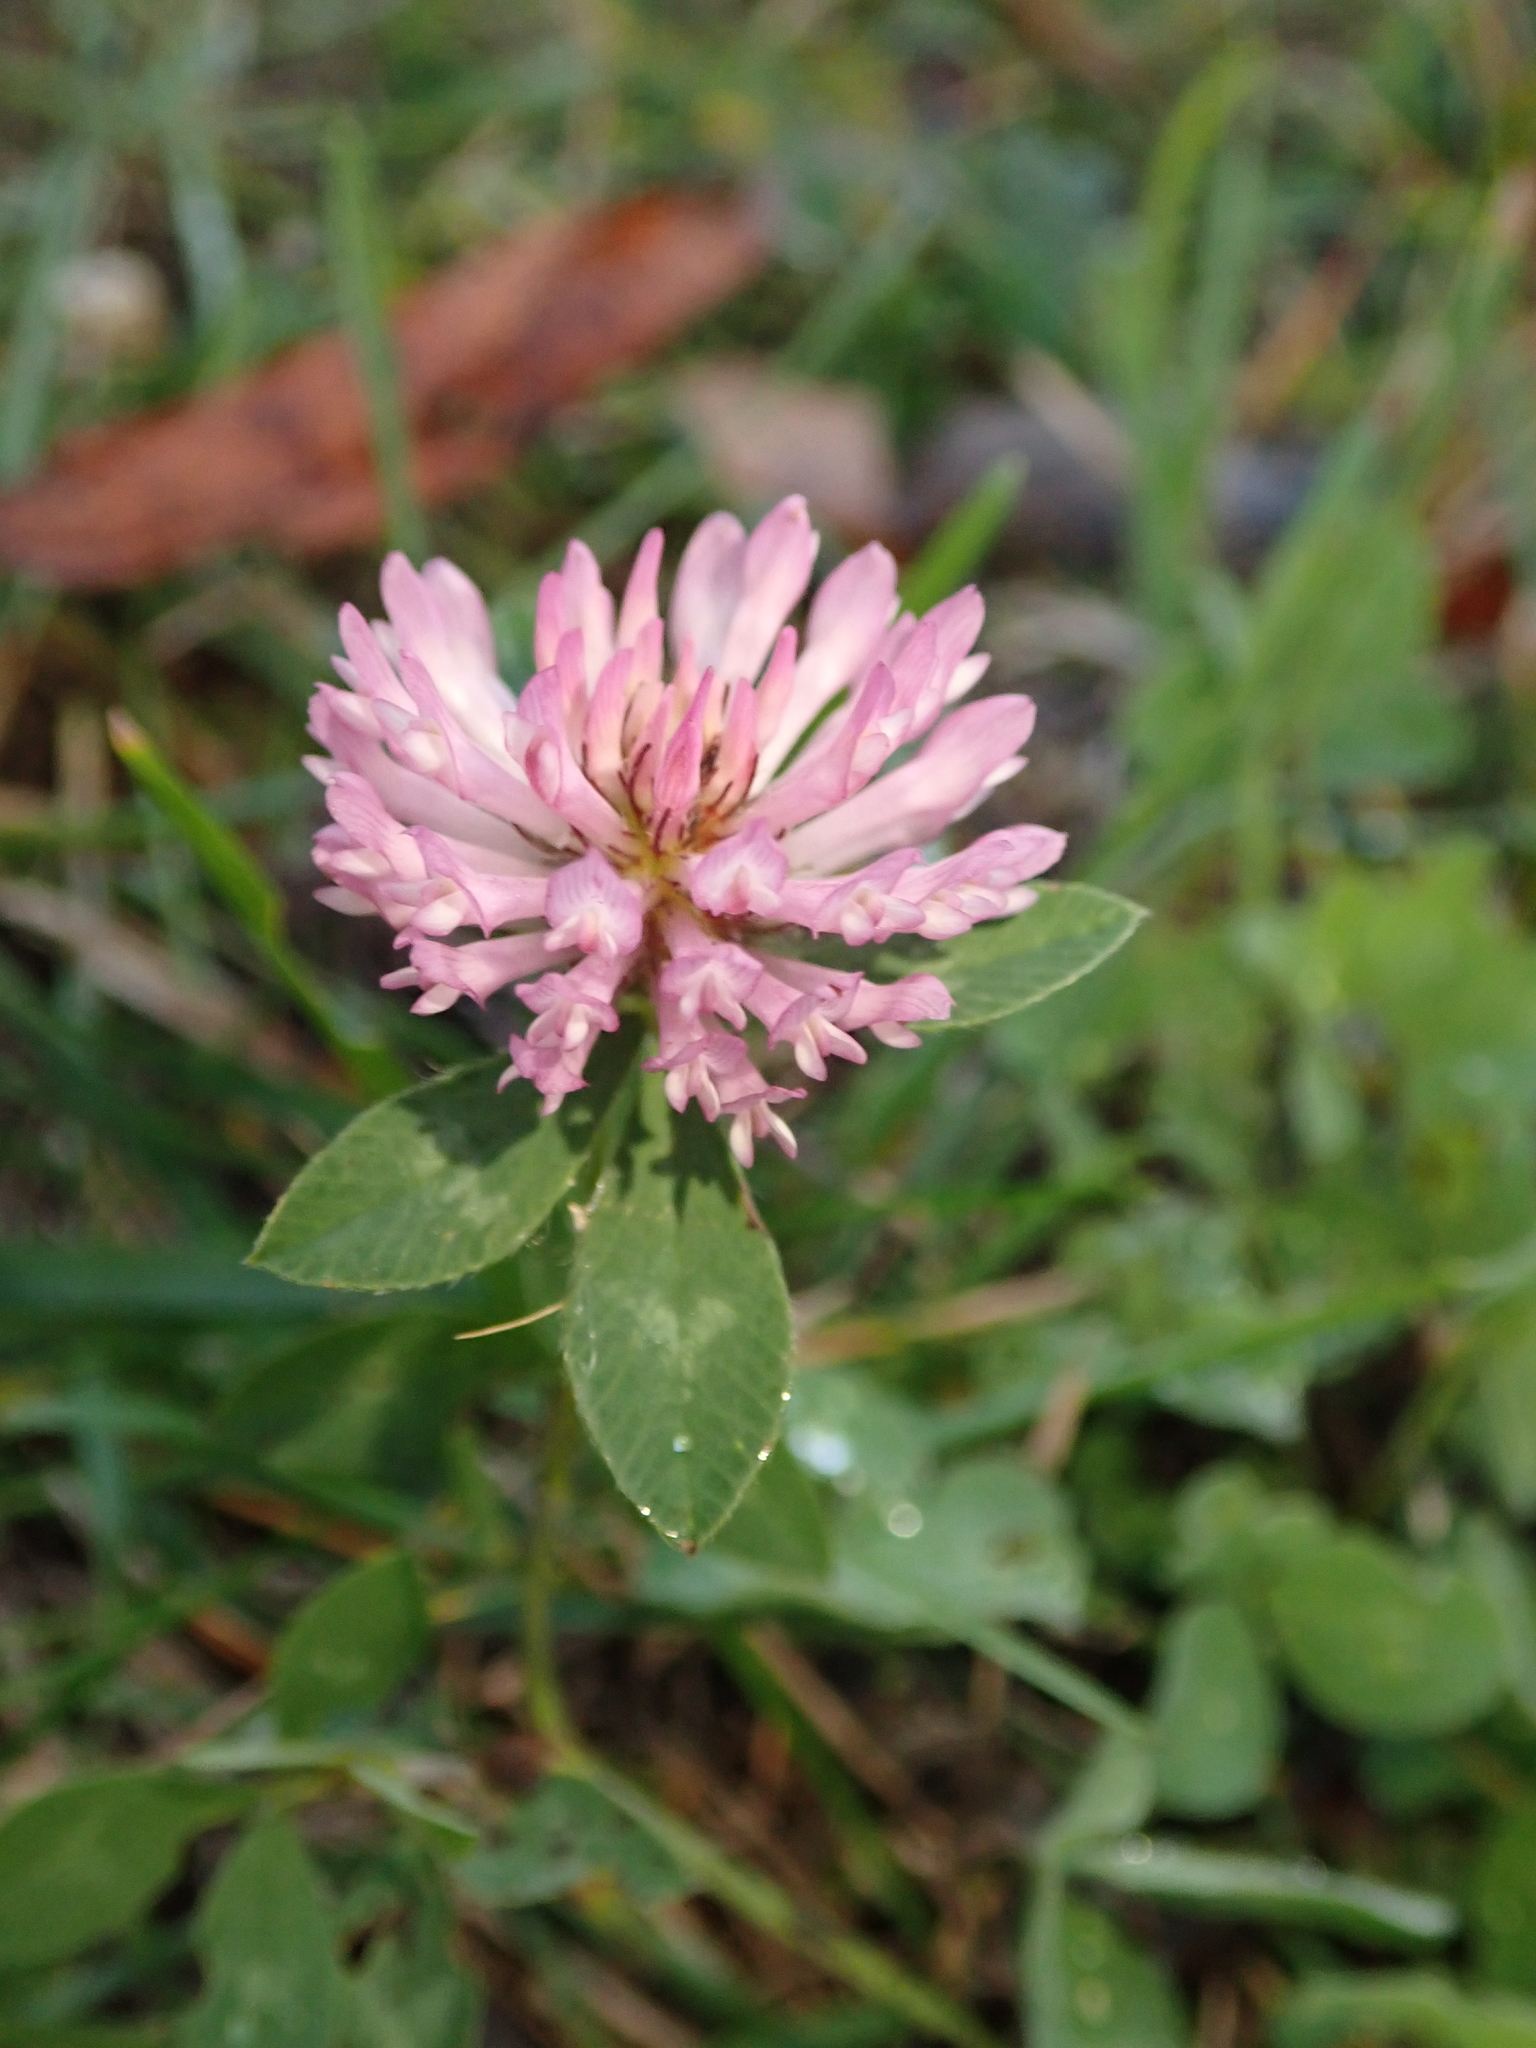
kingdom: Plantae
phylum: Tracheophyta
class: Magnoliopsida
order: Fabales
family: Fabaceae
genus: Trifolium
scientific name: Trifolium pratense
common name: Red clover
